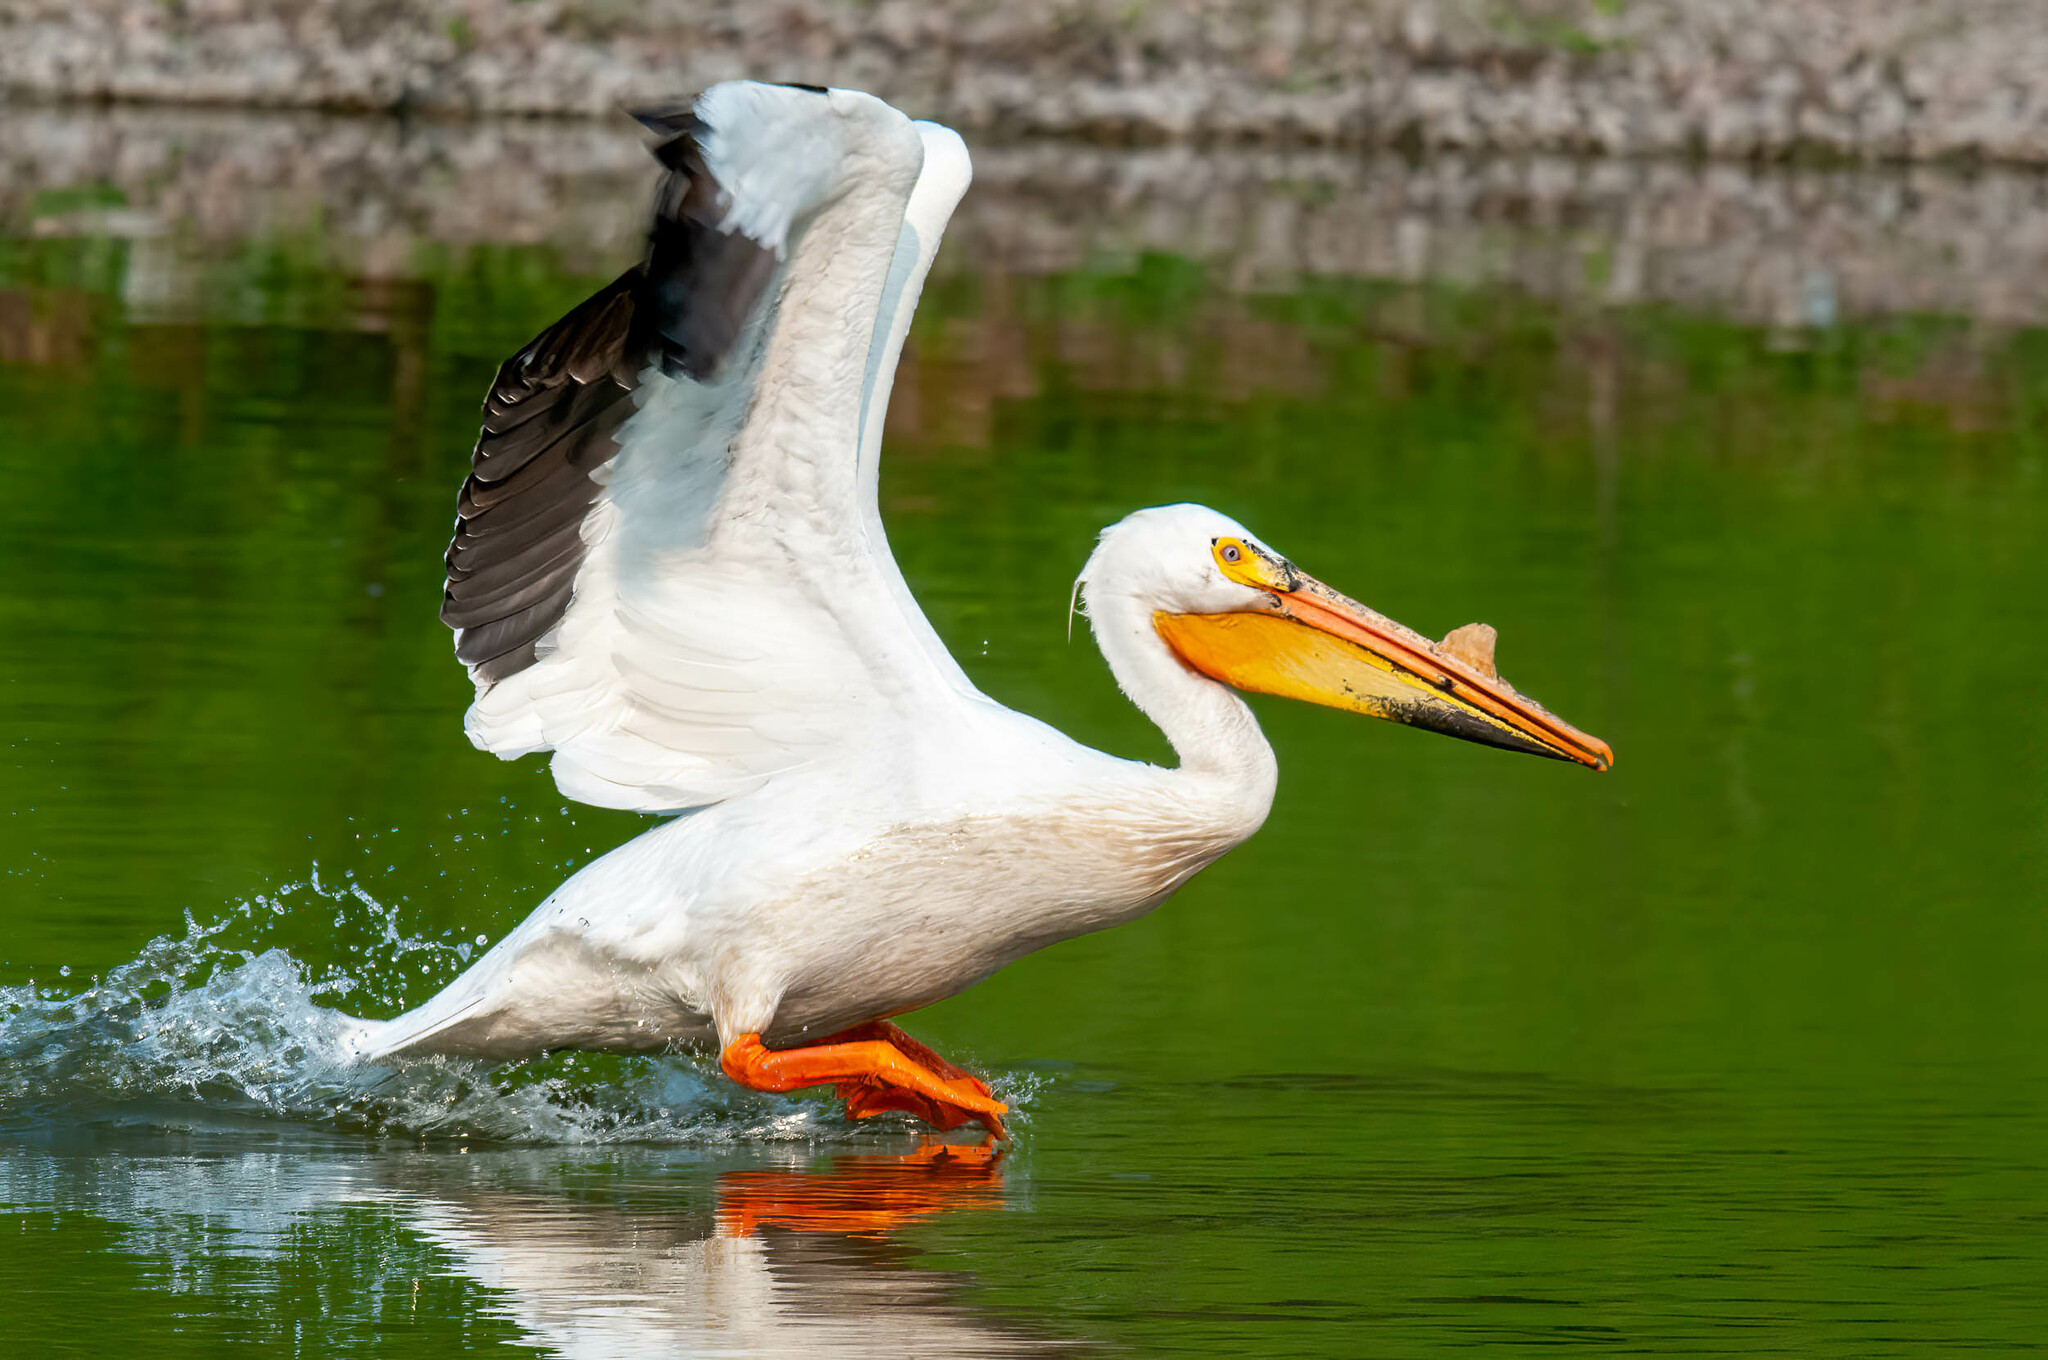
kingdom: Animalia
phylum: Chordata
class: Aves
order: Pelecaniformes
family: Pelecanidae
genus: Pelecanus
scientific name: Pelecanus erythrorhynchos
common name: American white pelican
